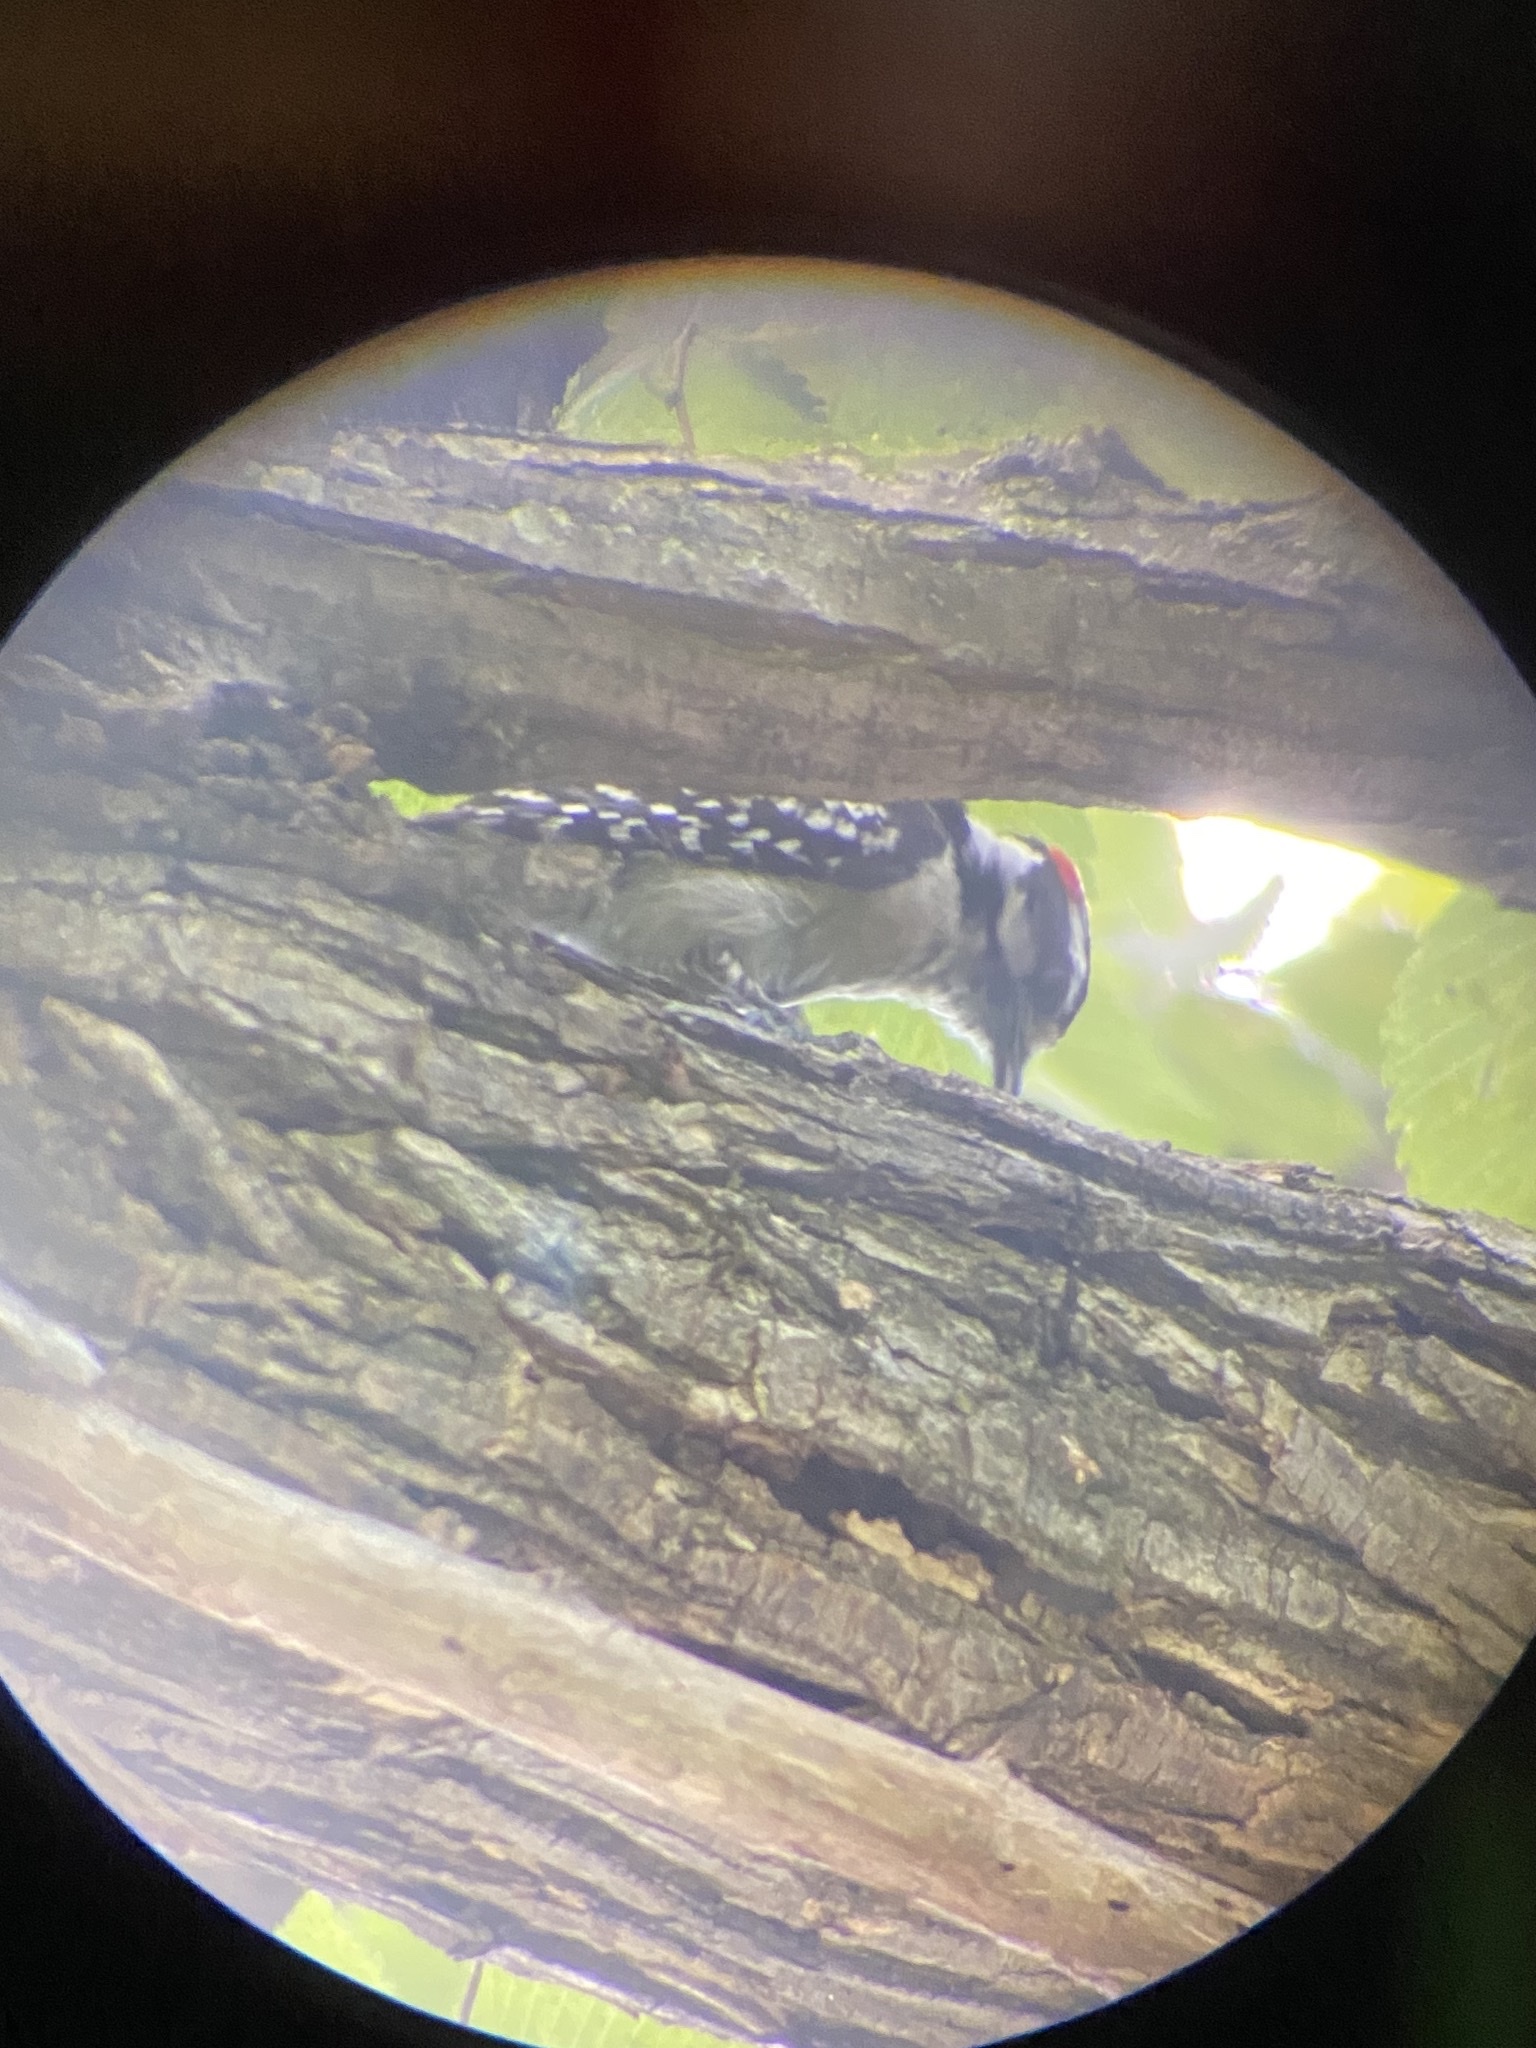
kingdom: Animalia
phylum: Chordata
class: Aves
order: Piciformes
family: Picidae
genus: Dryobates
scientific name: Dryobates pubescens
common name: Downy woodpecker
